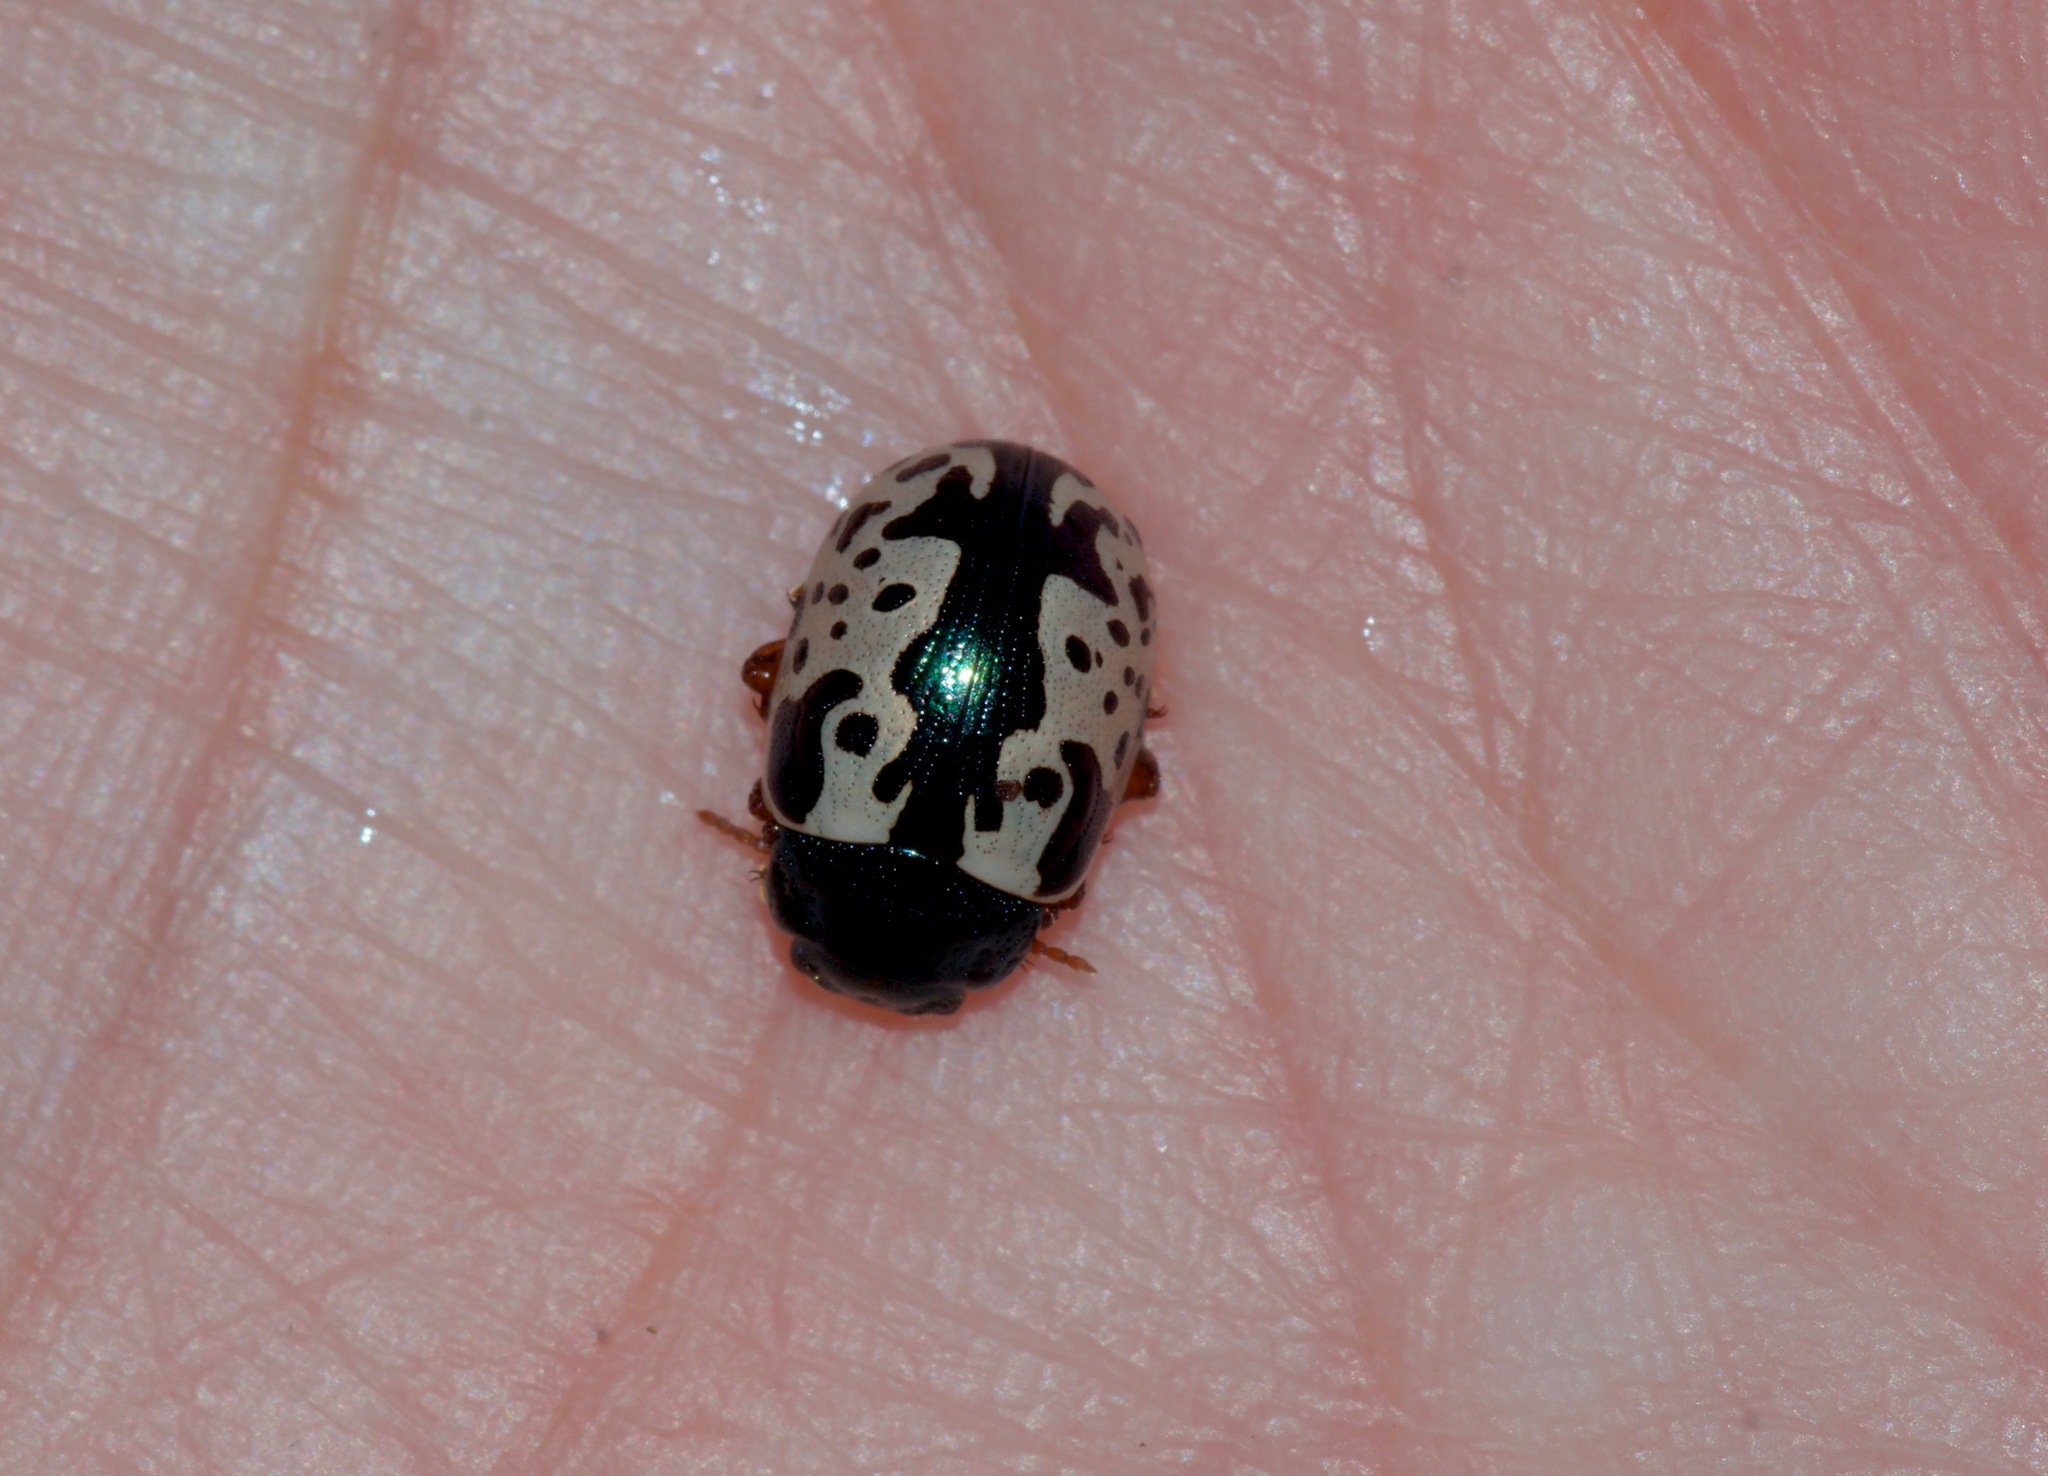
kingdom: Animalia
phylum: Arthropoda
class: Insecta
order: Coleoptera
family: Chrysomelidae
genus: Calligrapha
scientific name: Calligrapha scalaris
